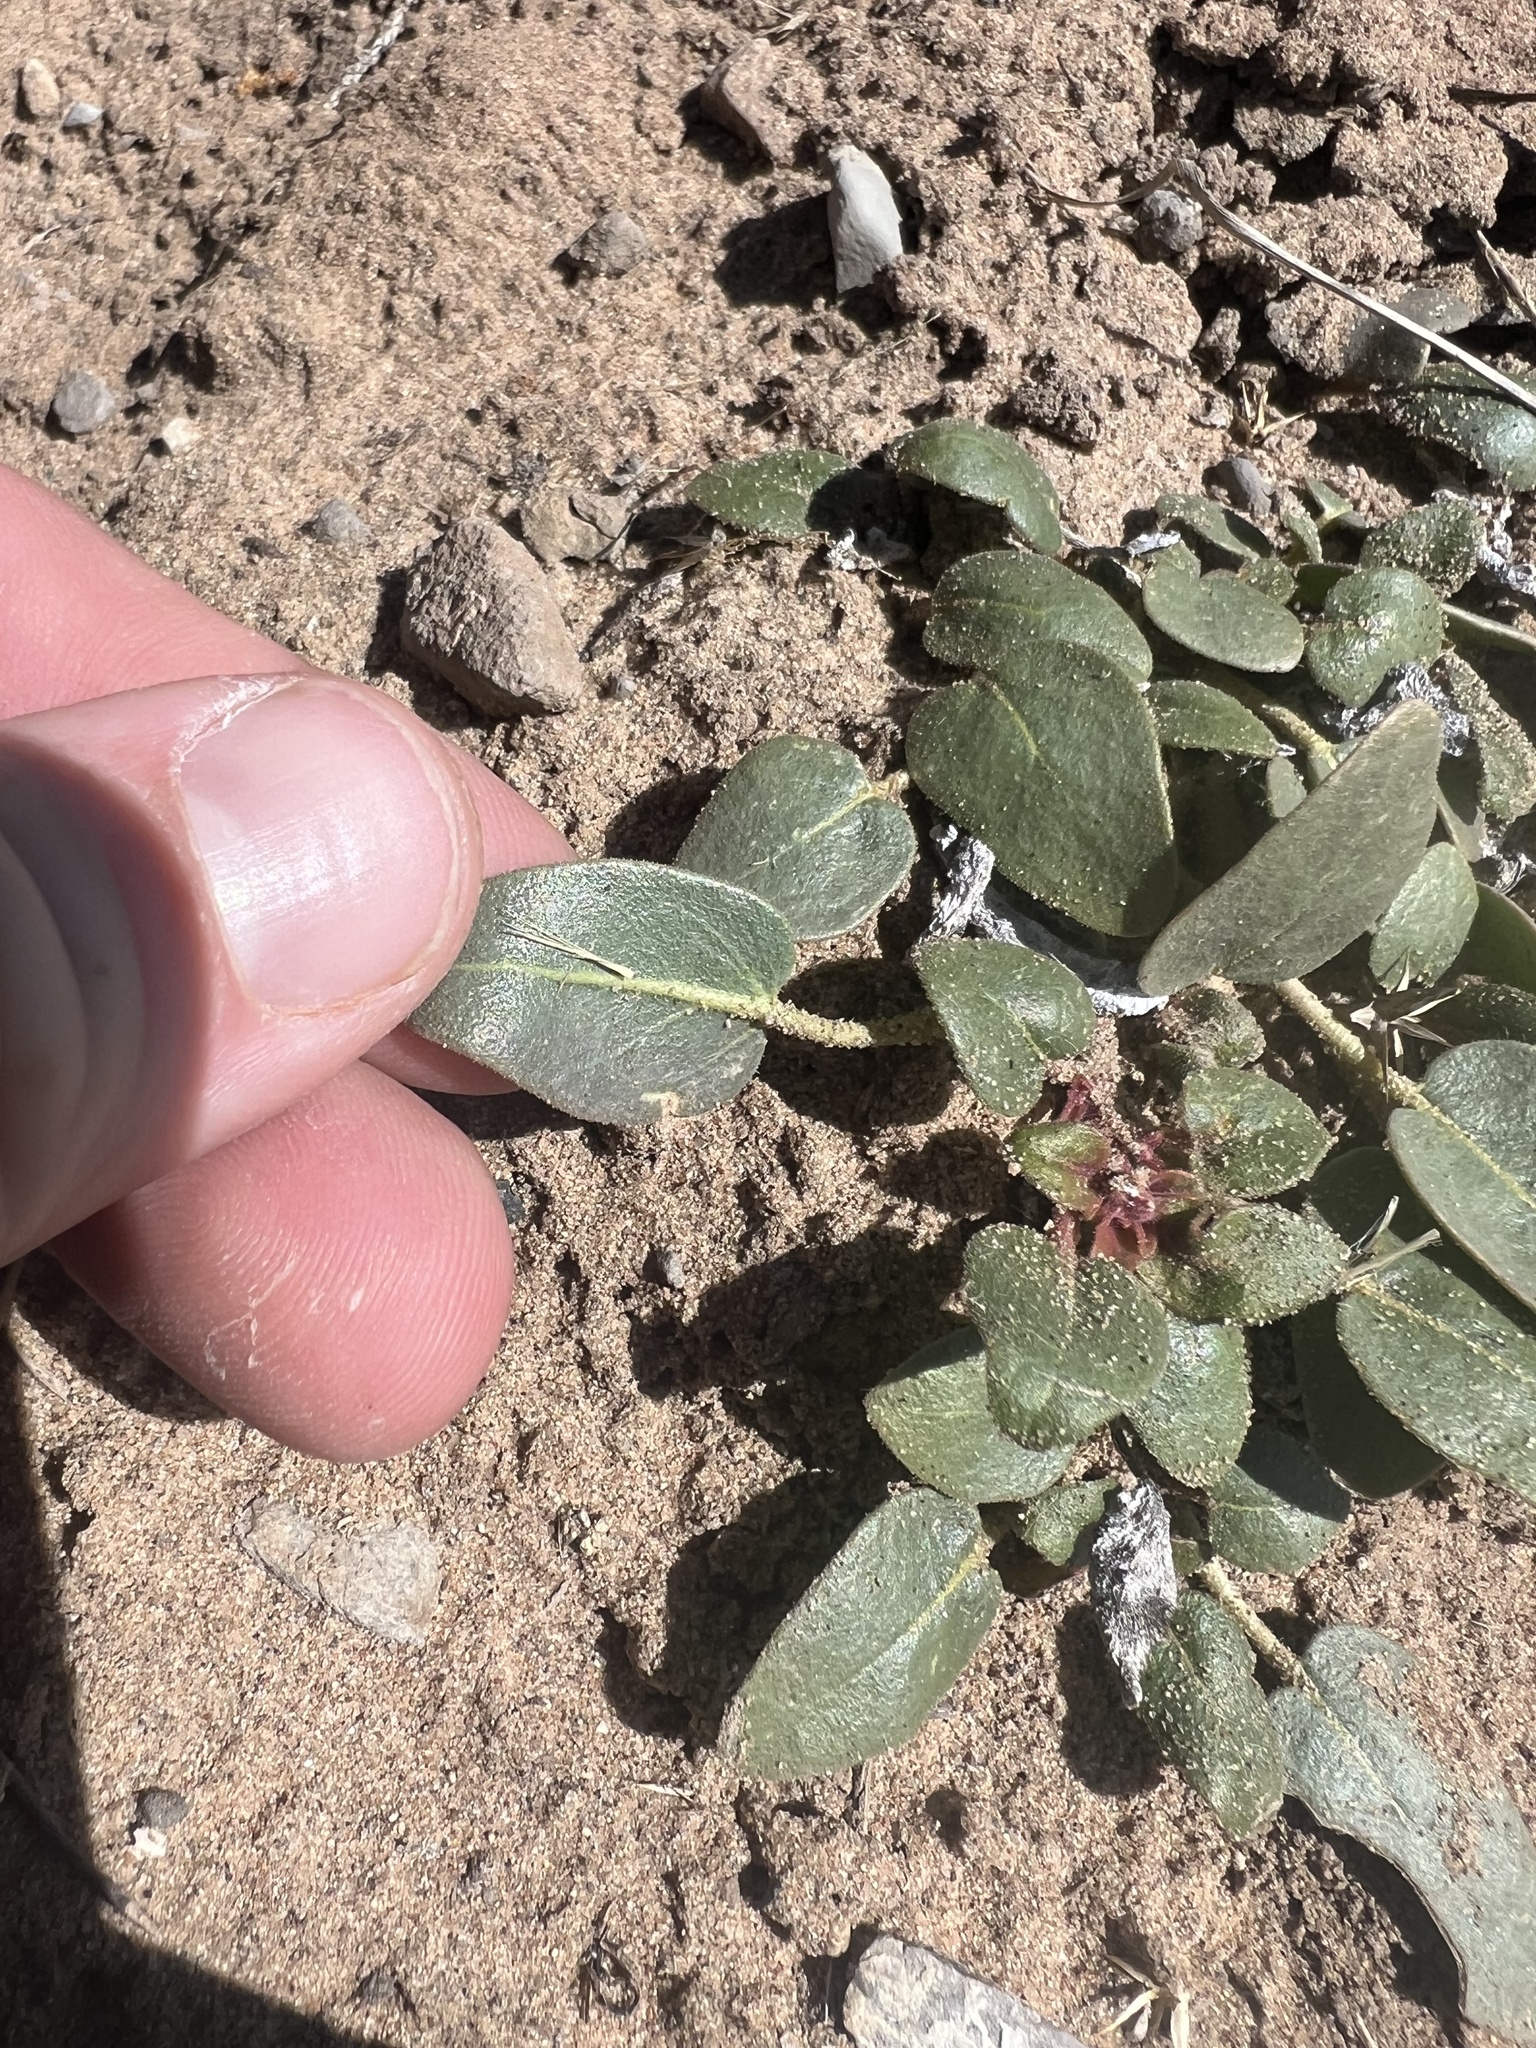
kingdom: Plantae
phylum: Tracheophyta
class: Magnoliopsida
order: Caryophyllales
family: Nyctaginaceae
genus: Abronia
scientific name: Abronia elliptica
